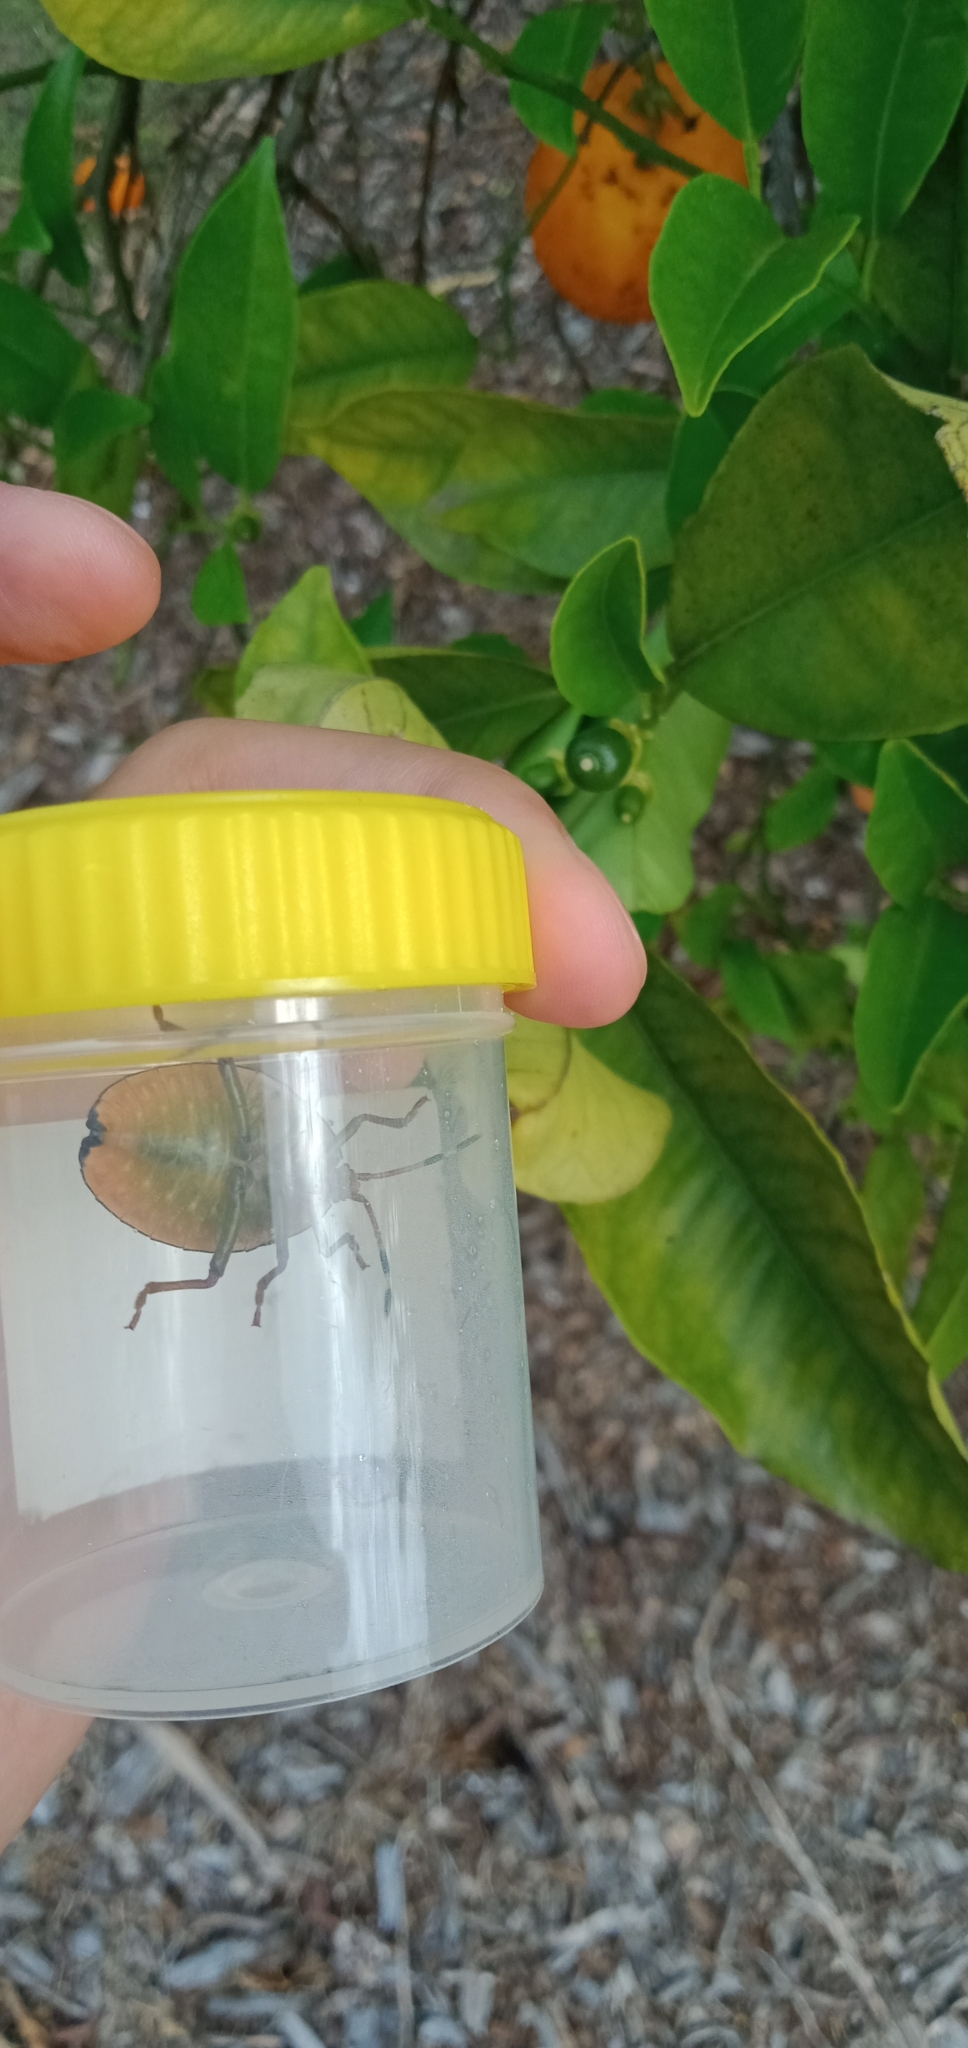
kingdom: Animalia
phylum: Arthropoda
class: Insecta
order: Hemiptera
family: Tessaratomidae
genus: Musgraveia
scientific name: Musgraveia sulciventris
